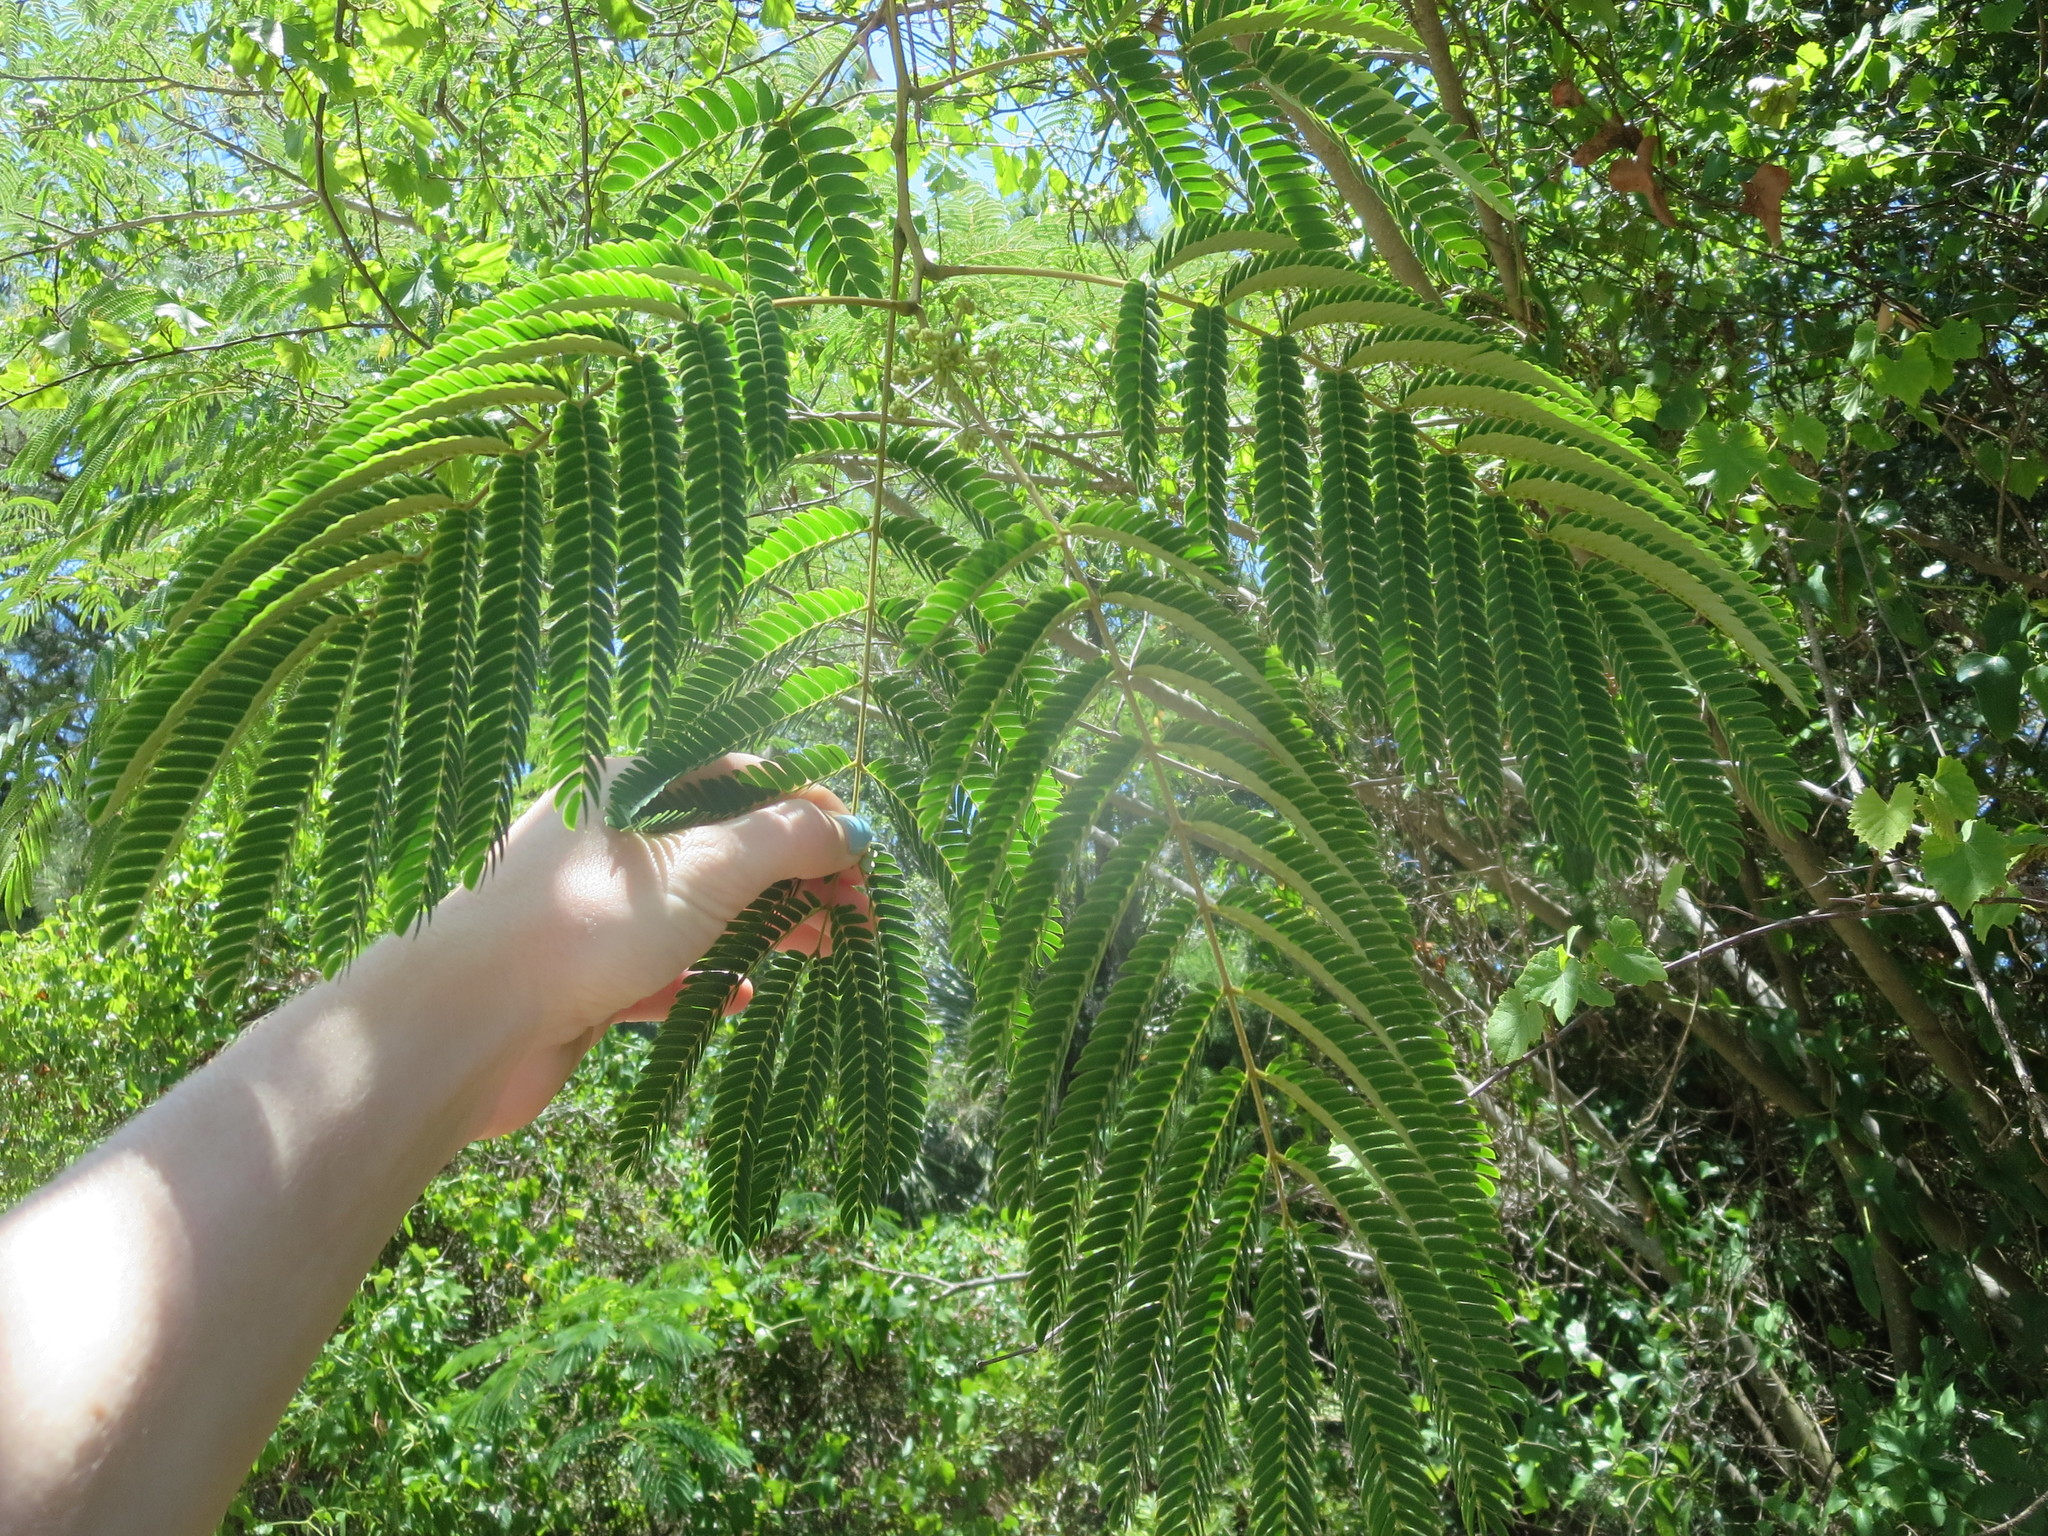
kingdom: Plantae
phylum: Tracheophyta
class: Magnoliopsida
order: Fabales
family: Fabaceae
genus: Albizia
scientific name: Albizia julibrissin
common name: Silktree
